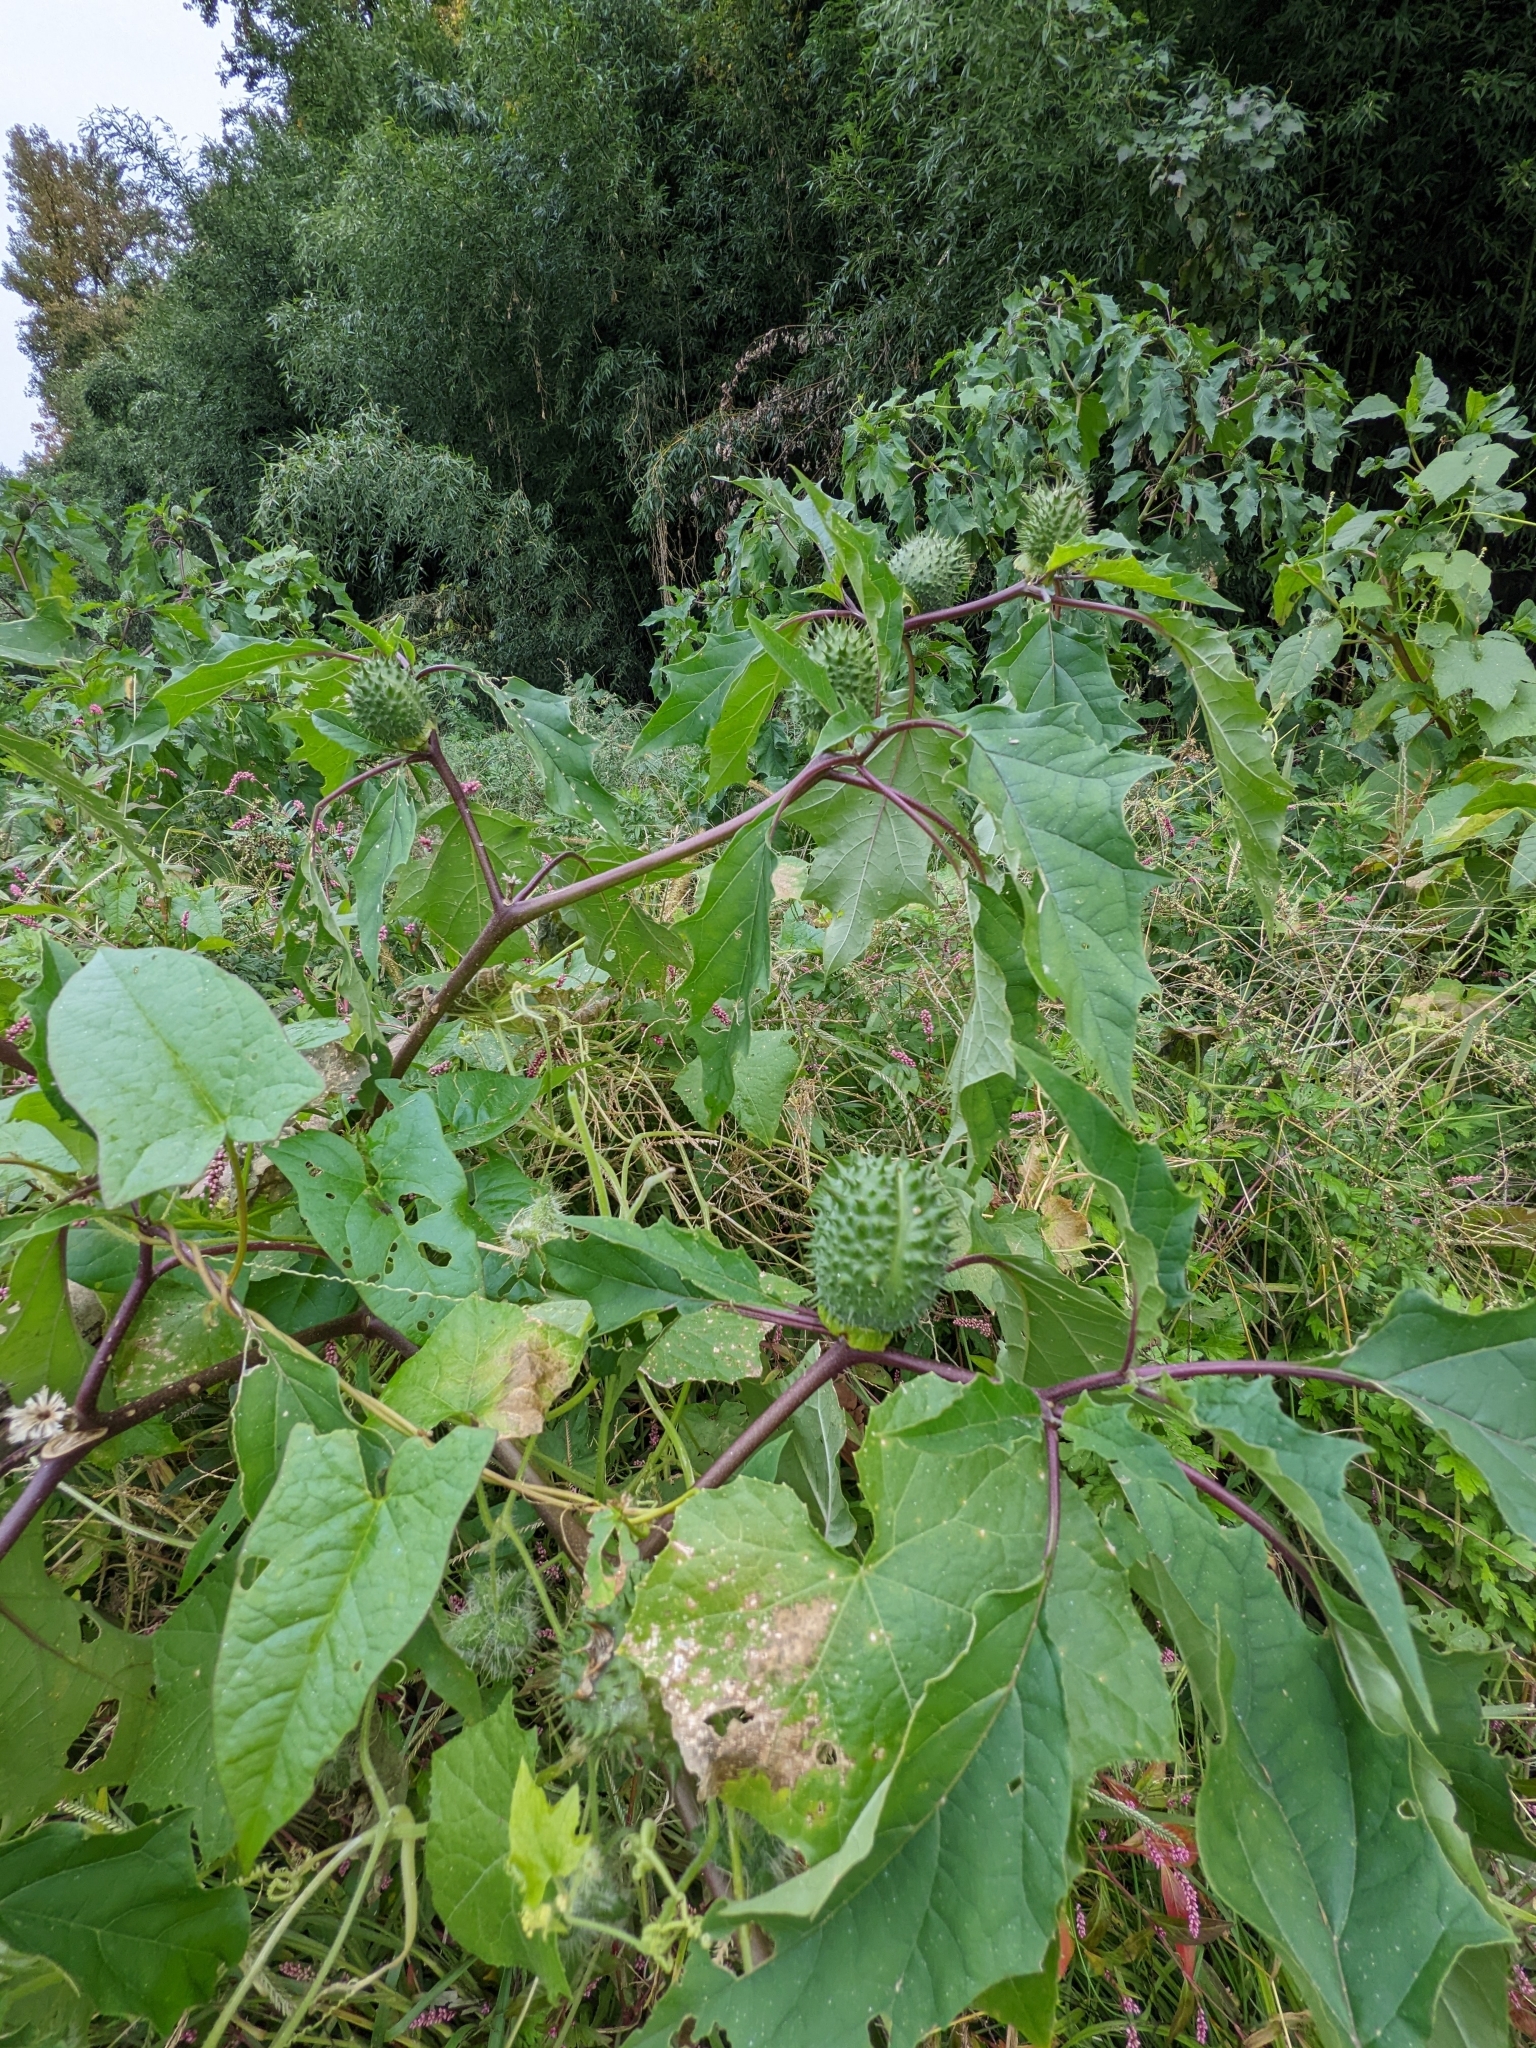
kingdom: Plantae
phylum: Tracheophyta
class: Magnoliopsida
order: Solanales
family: Solanaceae
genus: Datura
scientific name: Datura stramonium
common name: Thorn-apple
